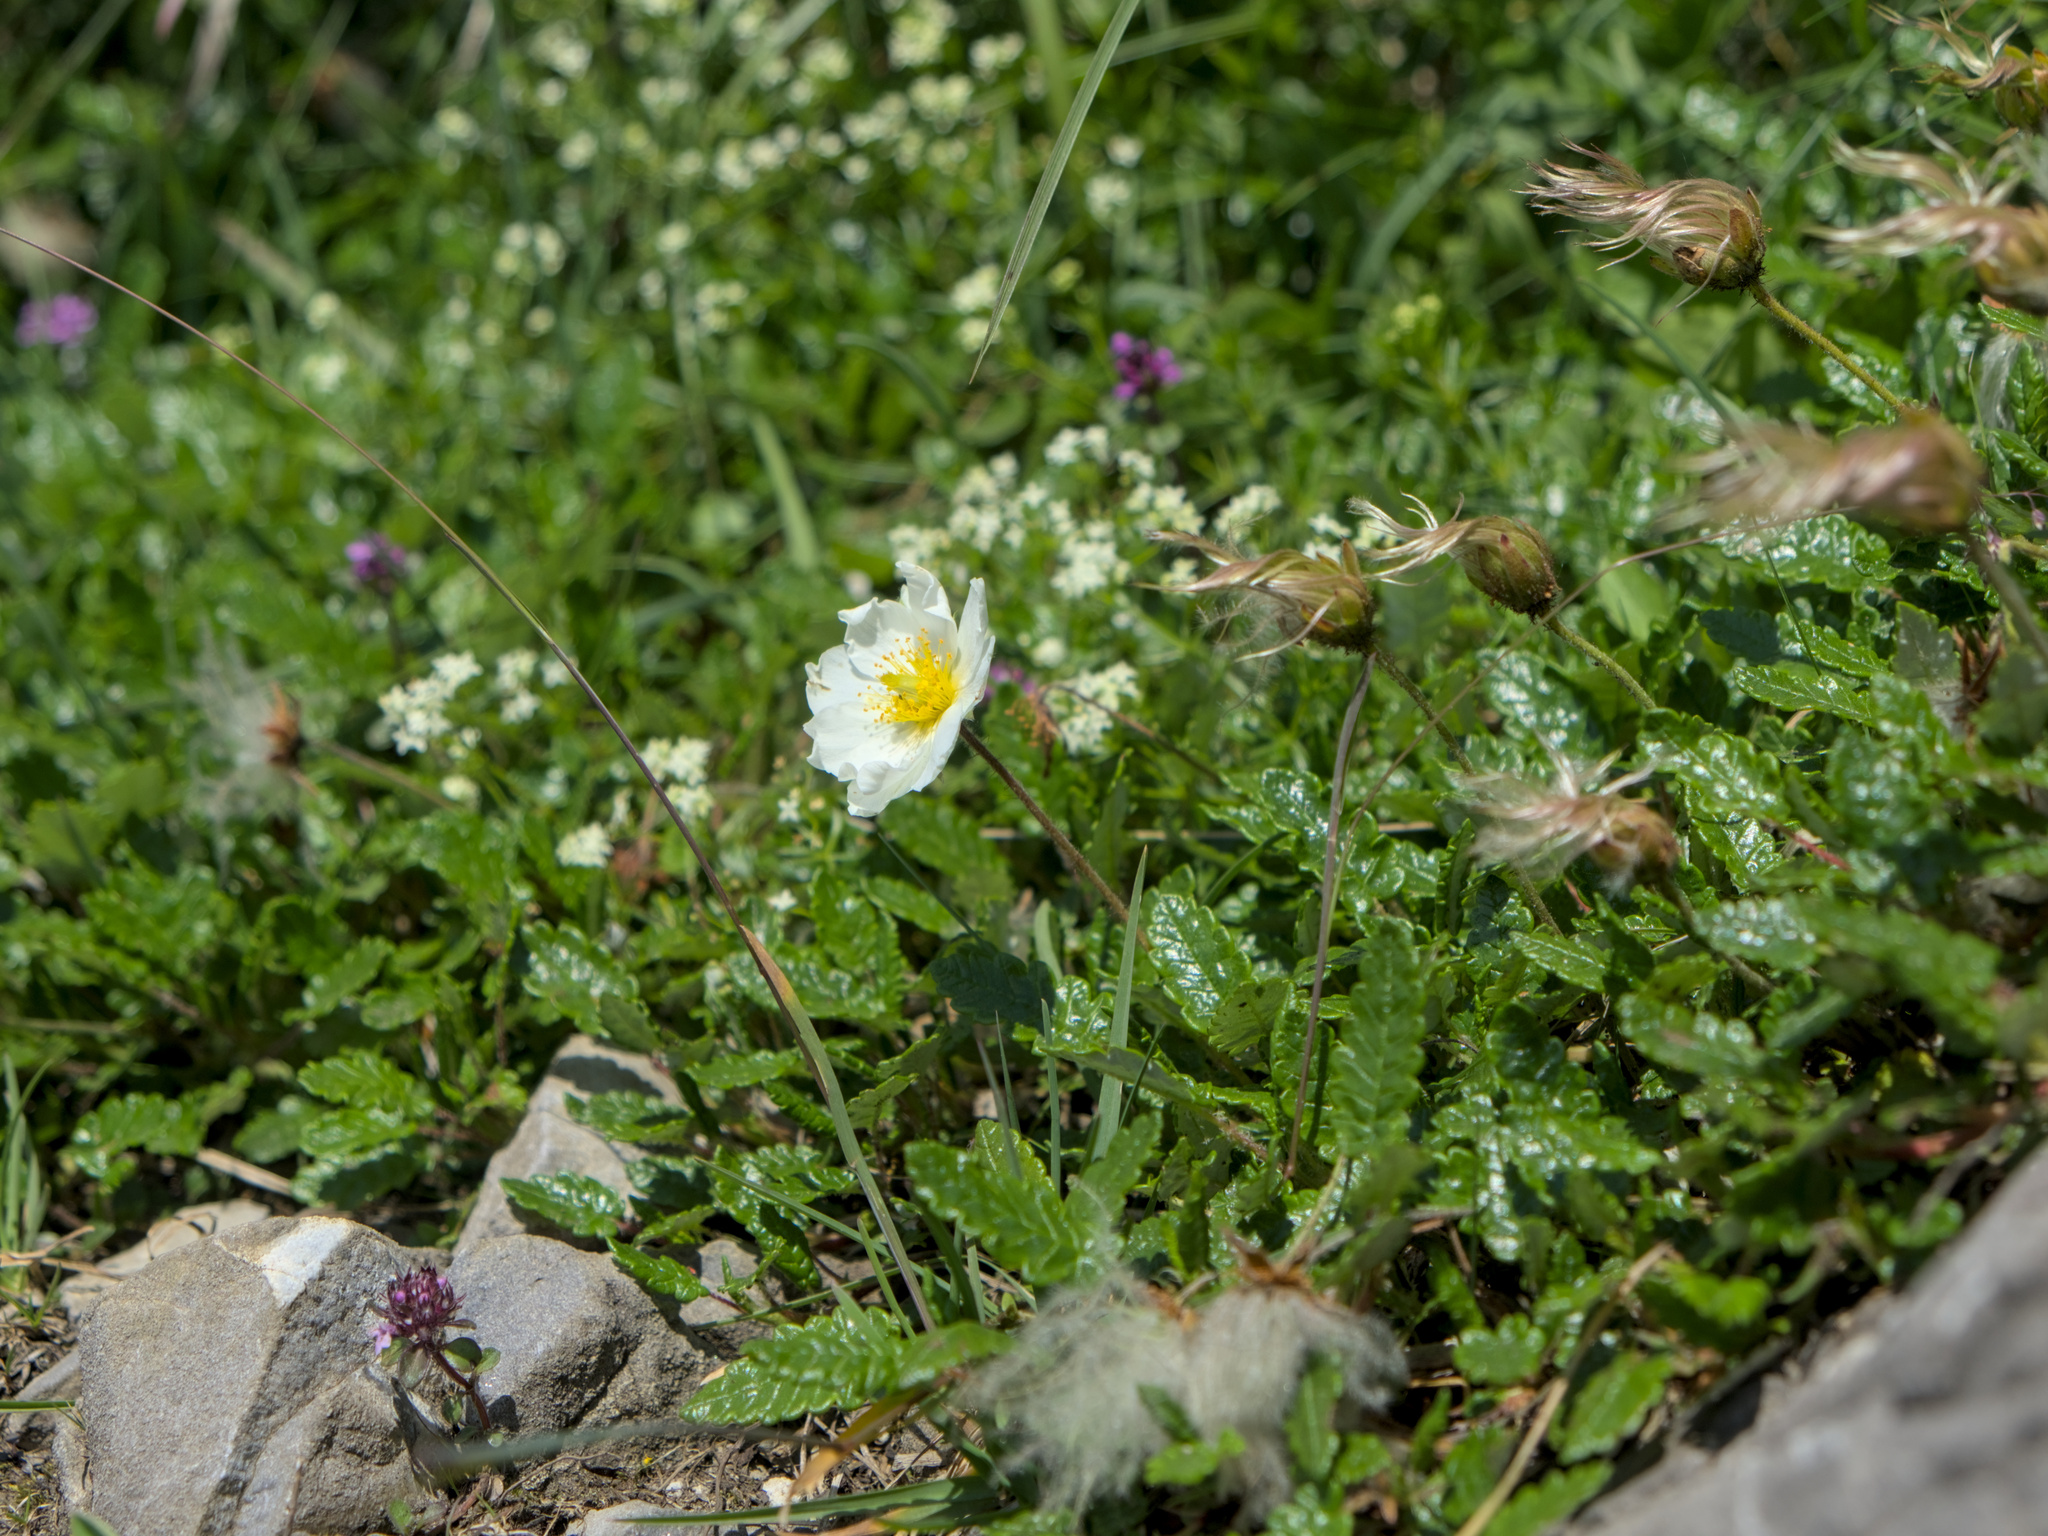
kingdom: Plantae
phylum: Tracheophyta
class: Magnoliopsida
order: Rosales
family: Rosaceae
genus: Dryas
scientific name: Dryas octopetala
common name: Eight-petal mountain-avens
